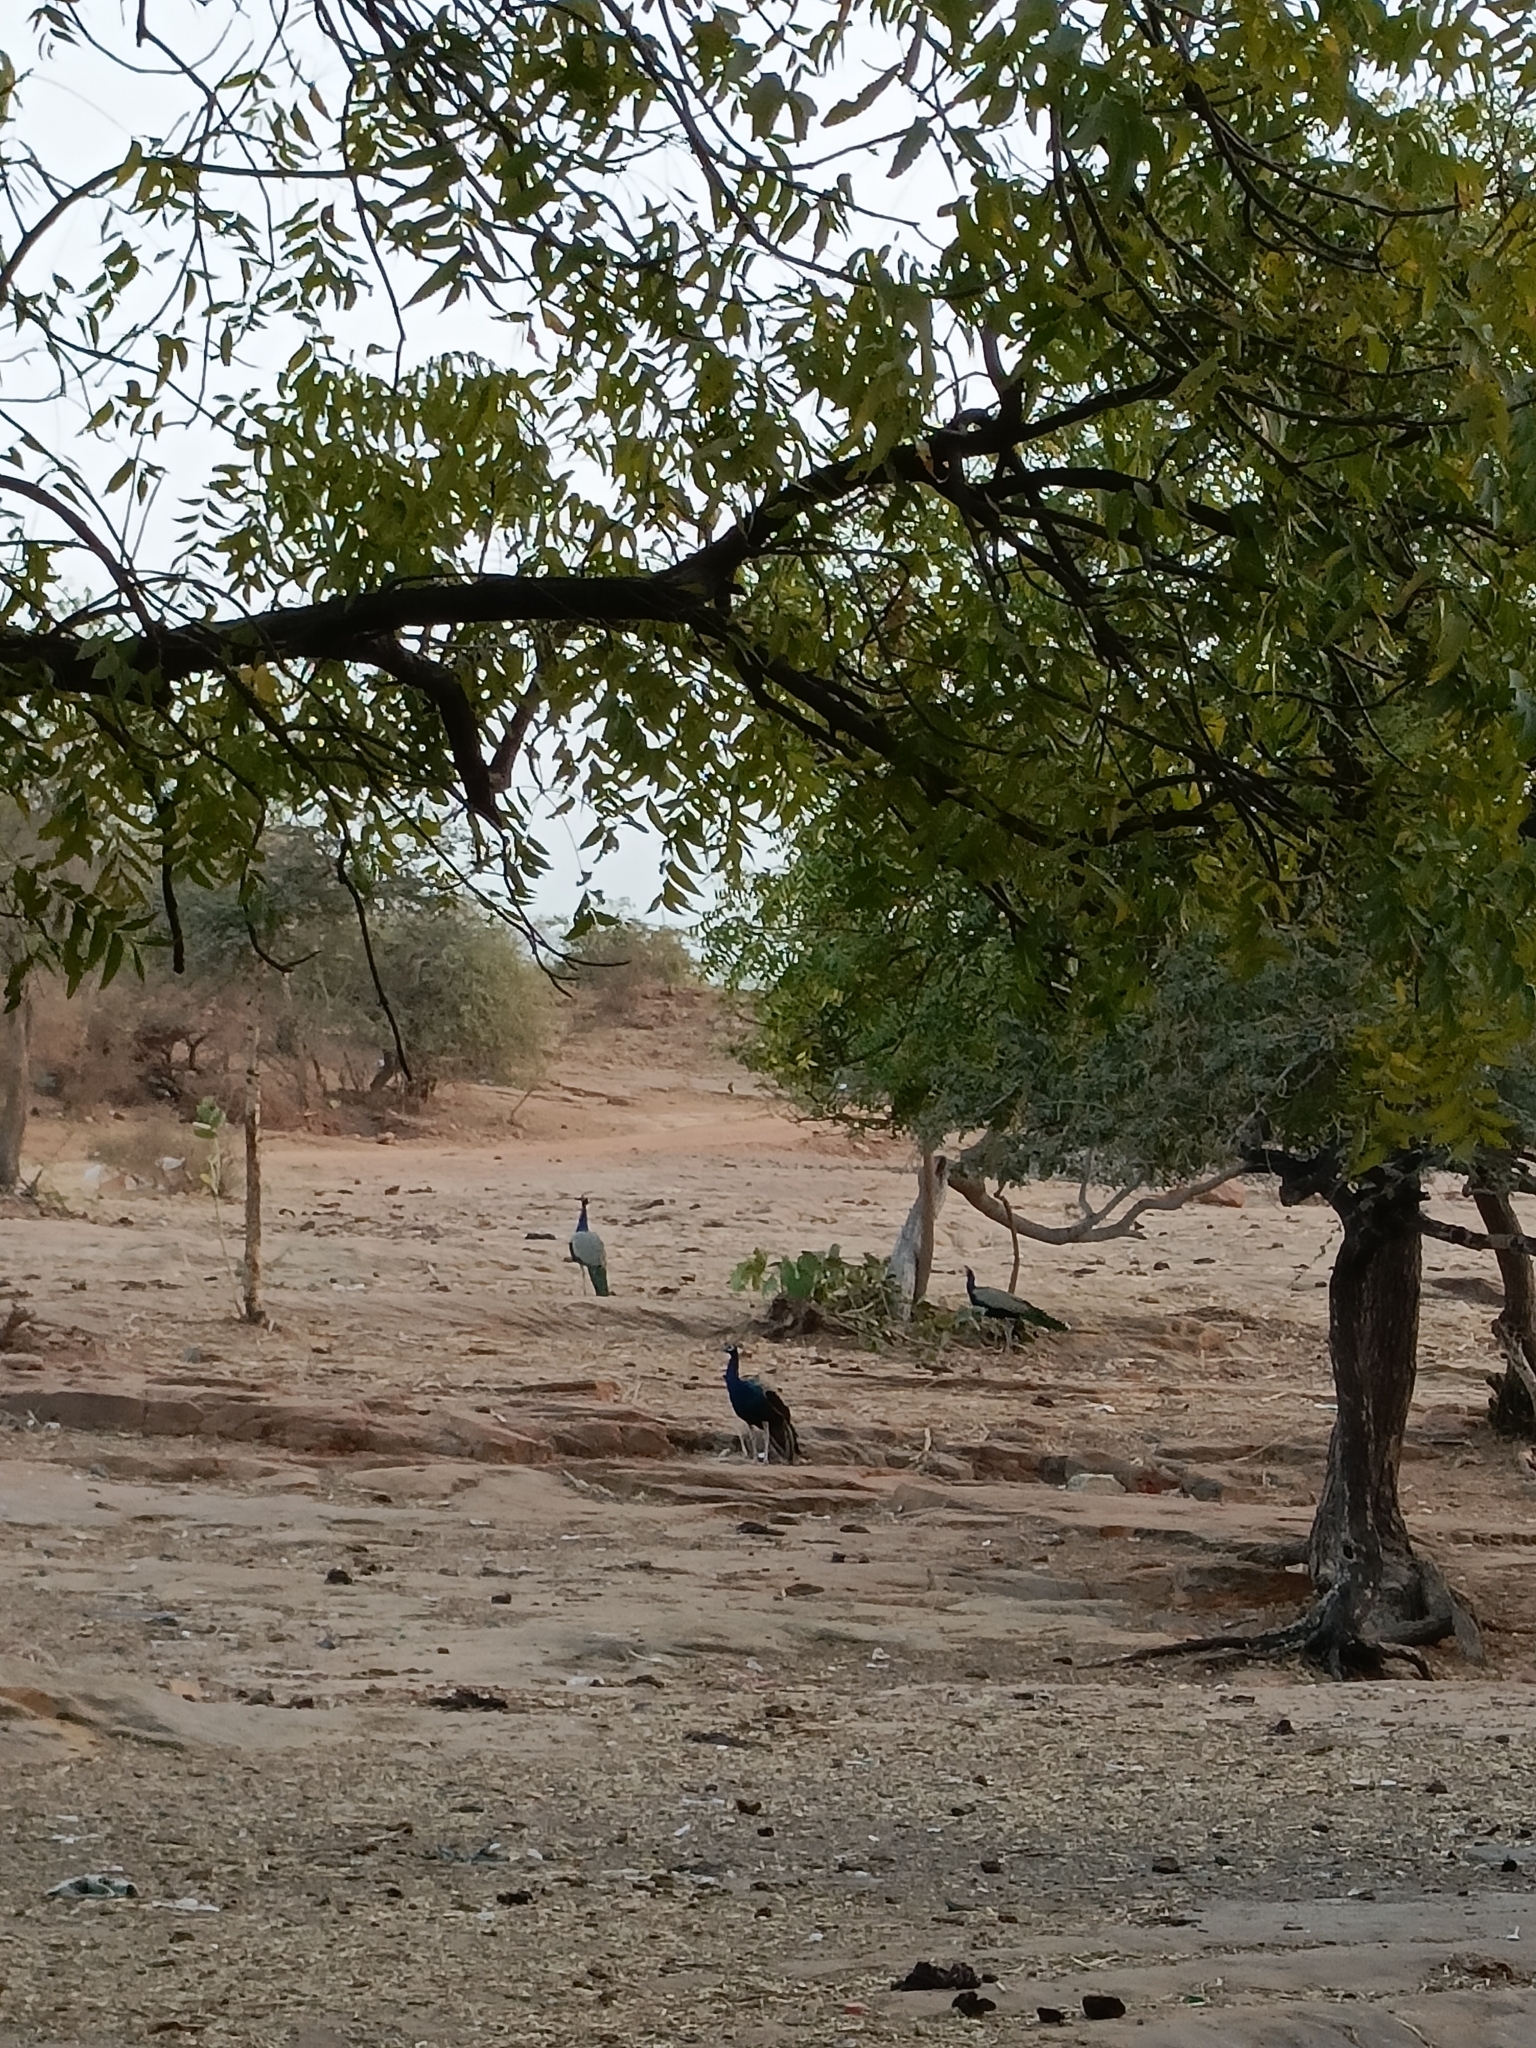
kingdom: Animalia
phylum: Chordata
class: Aves
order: Galliformes
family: Phasianidae
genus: Pavo
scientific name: Pavo cristatus
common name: Indian peafowl
